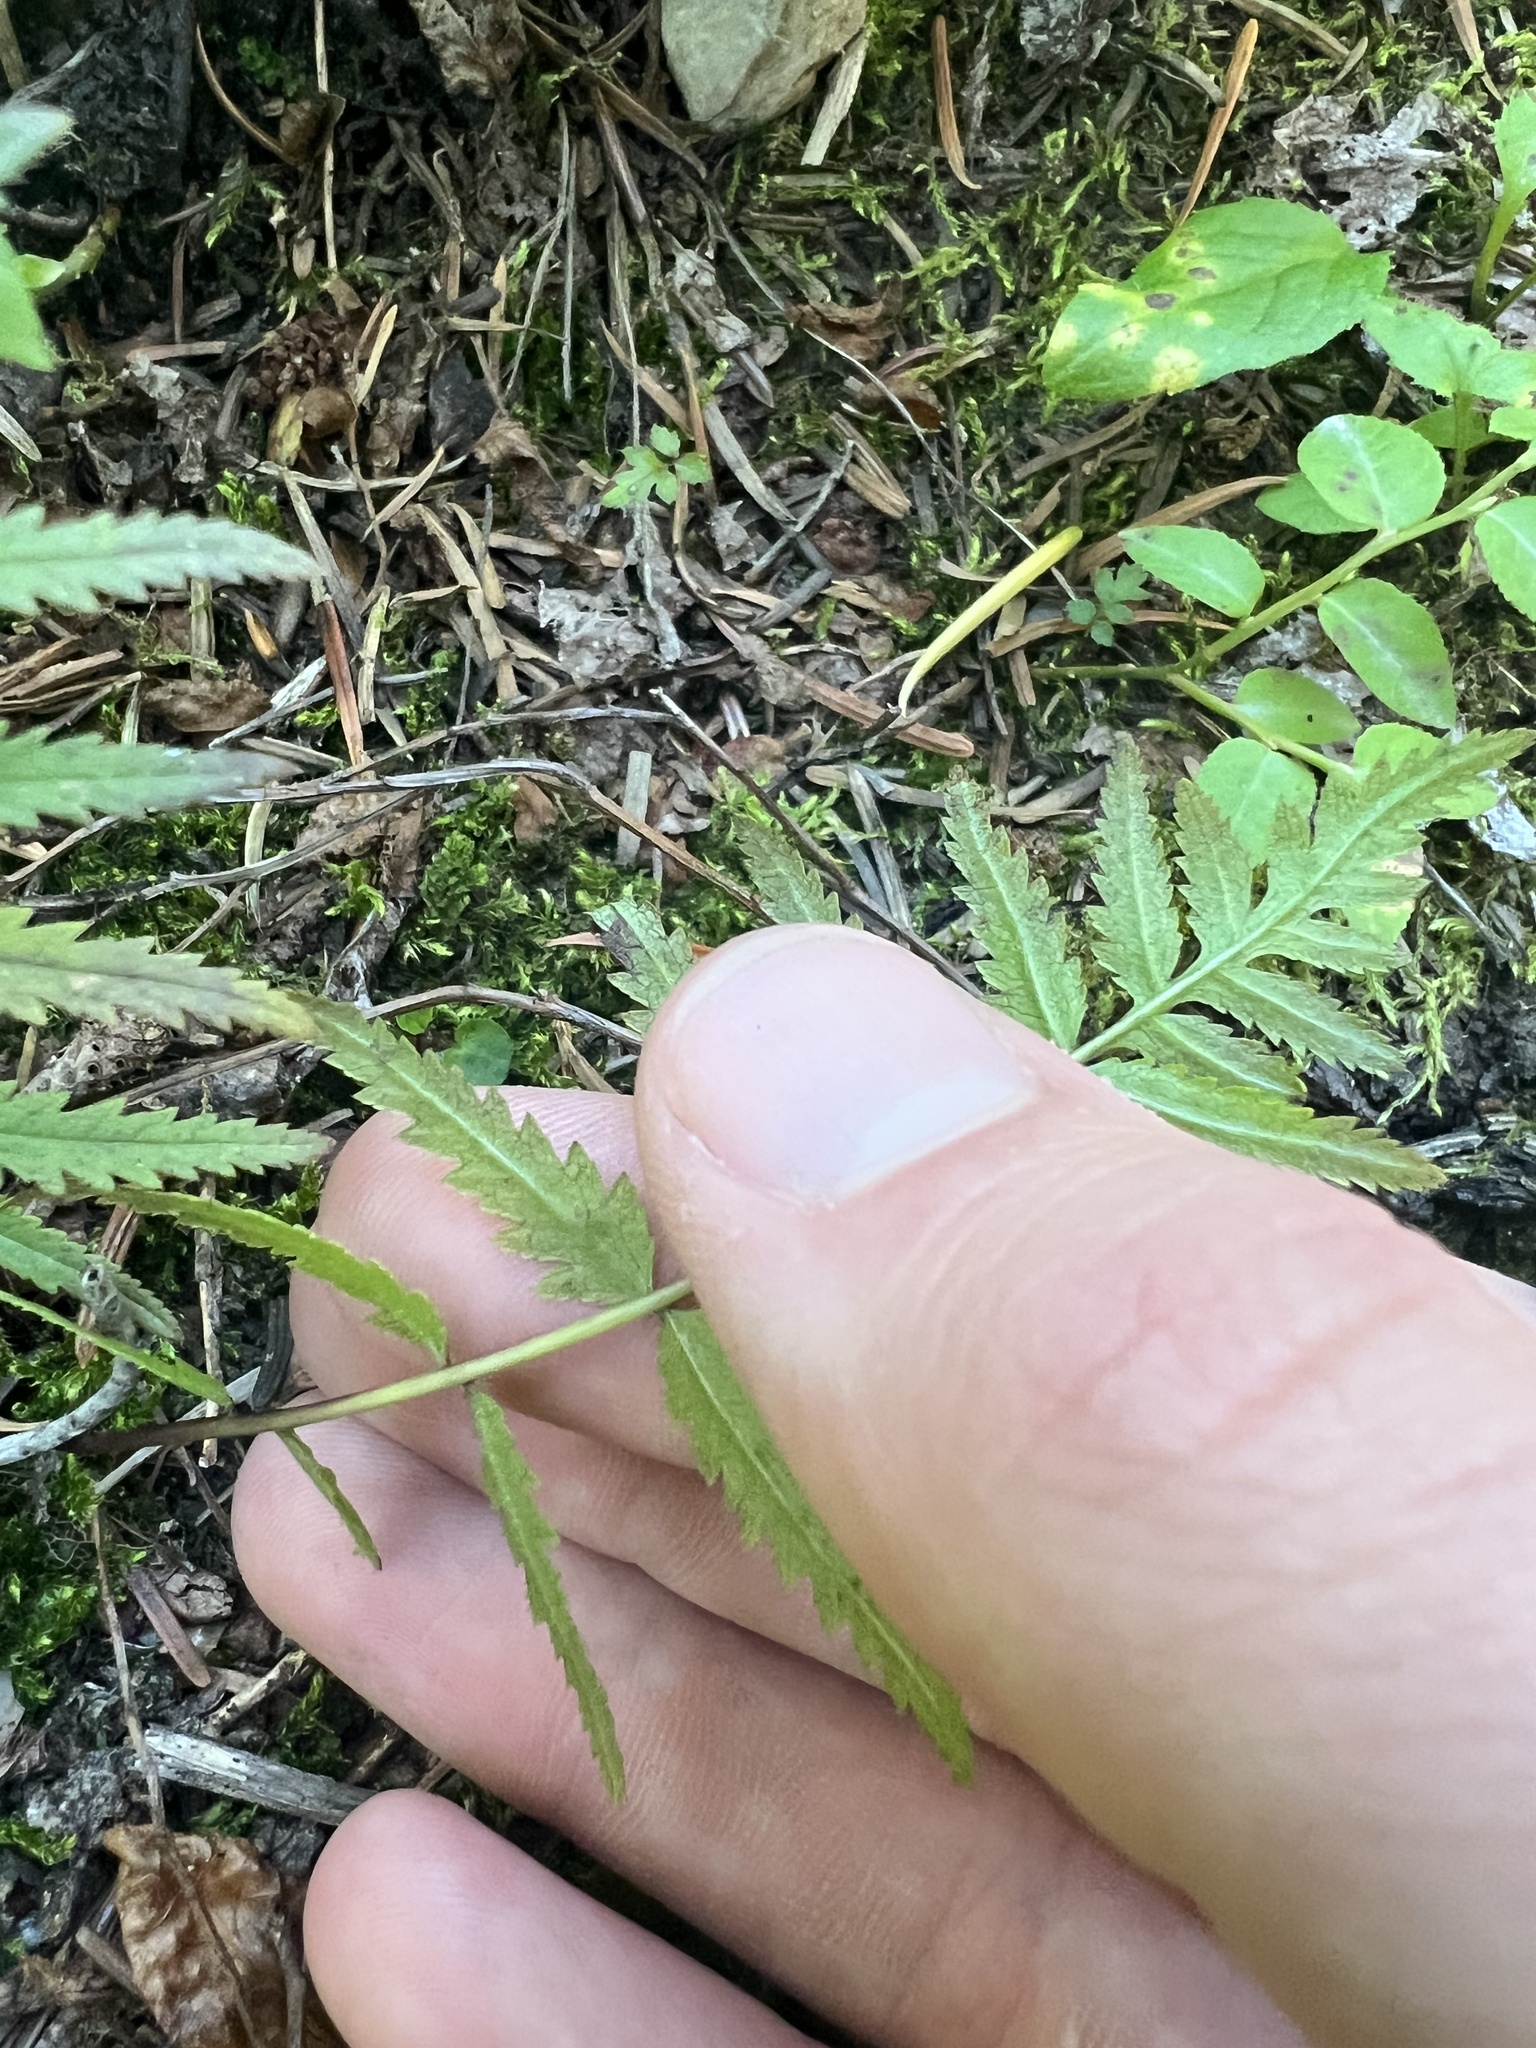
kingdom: Plantae
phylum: Tracheophyta
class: Magnoliopsida
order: Lamiales
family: Orobanchaceae
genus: Pedicularis
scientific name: Pedicularis bracteosa
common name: Bracted lousewort
